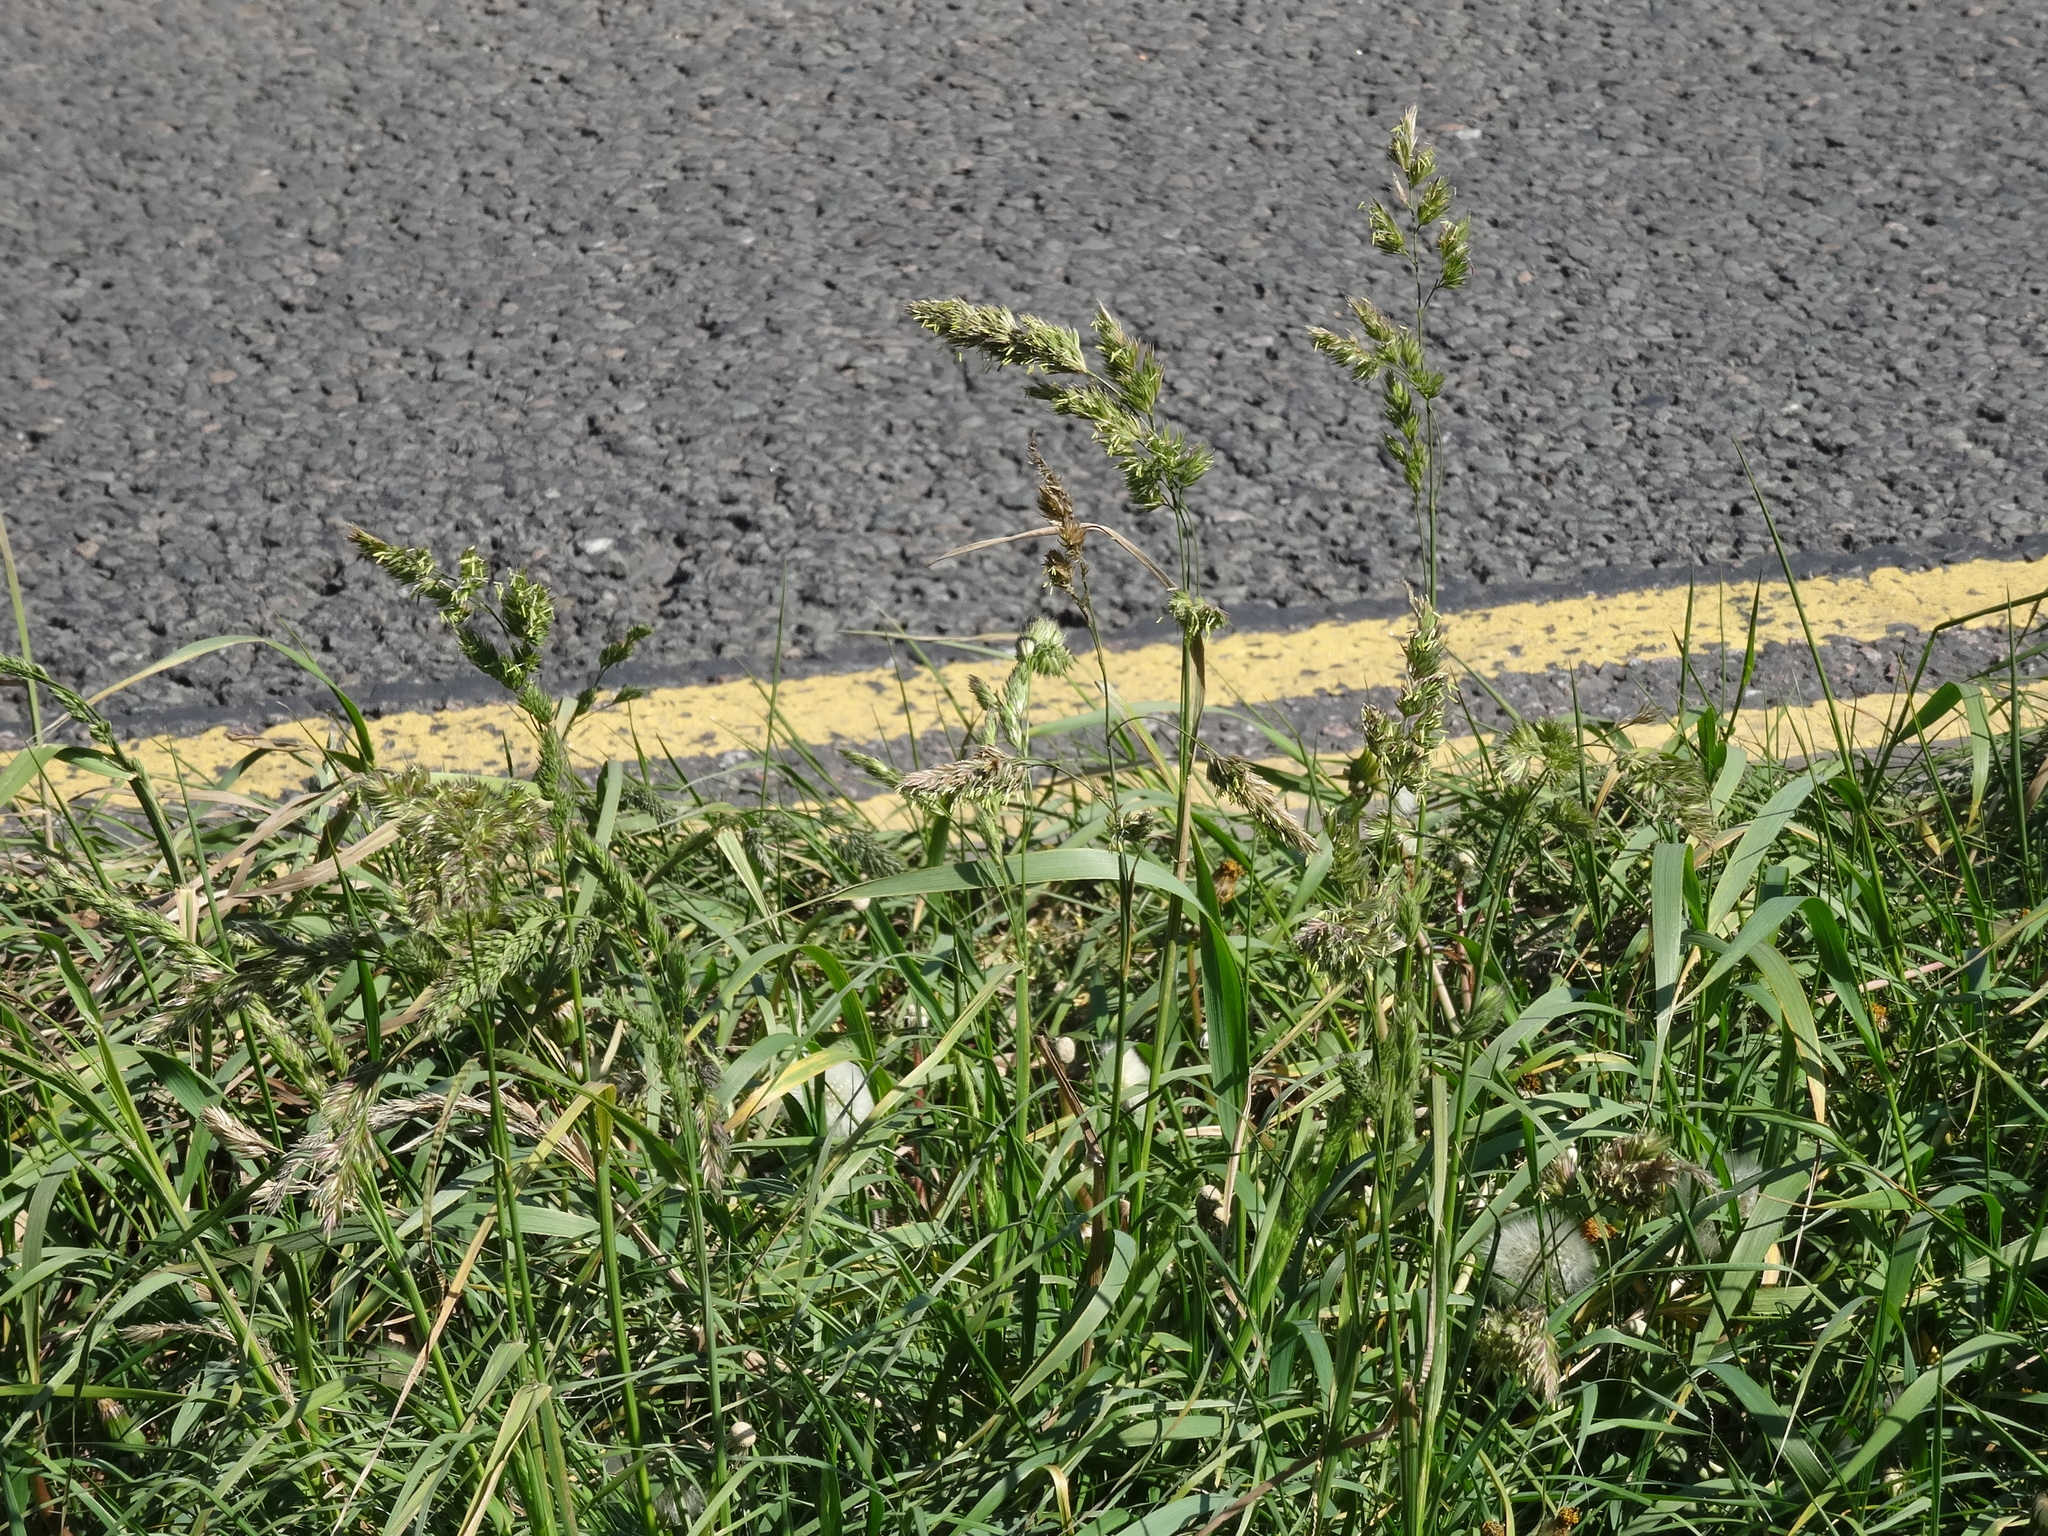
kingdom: Plantae
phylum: Tracheophyta
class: Liliopsida
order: Poales
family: Poaceae
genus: Dactylis
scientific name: Dactylis glomerata
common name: Orchardgrass
